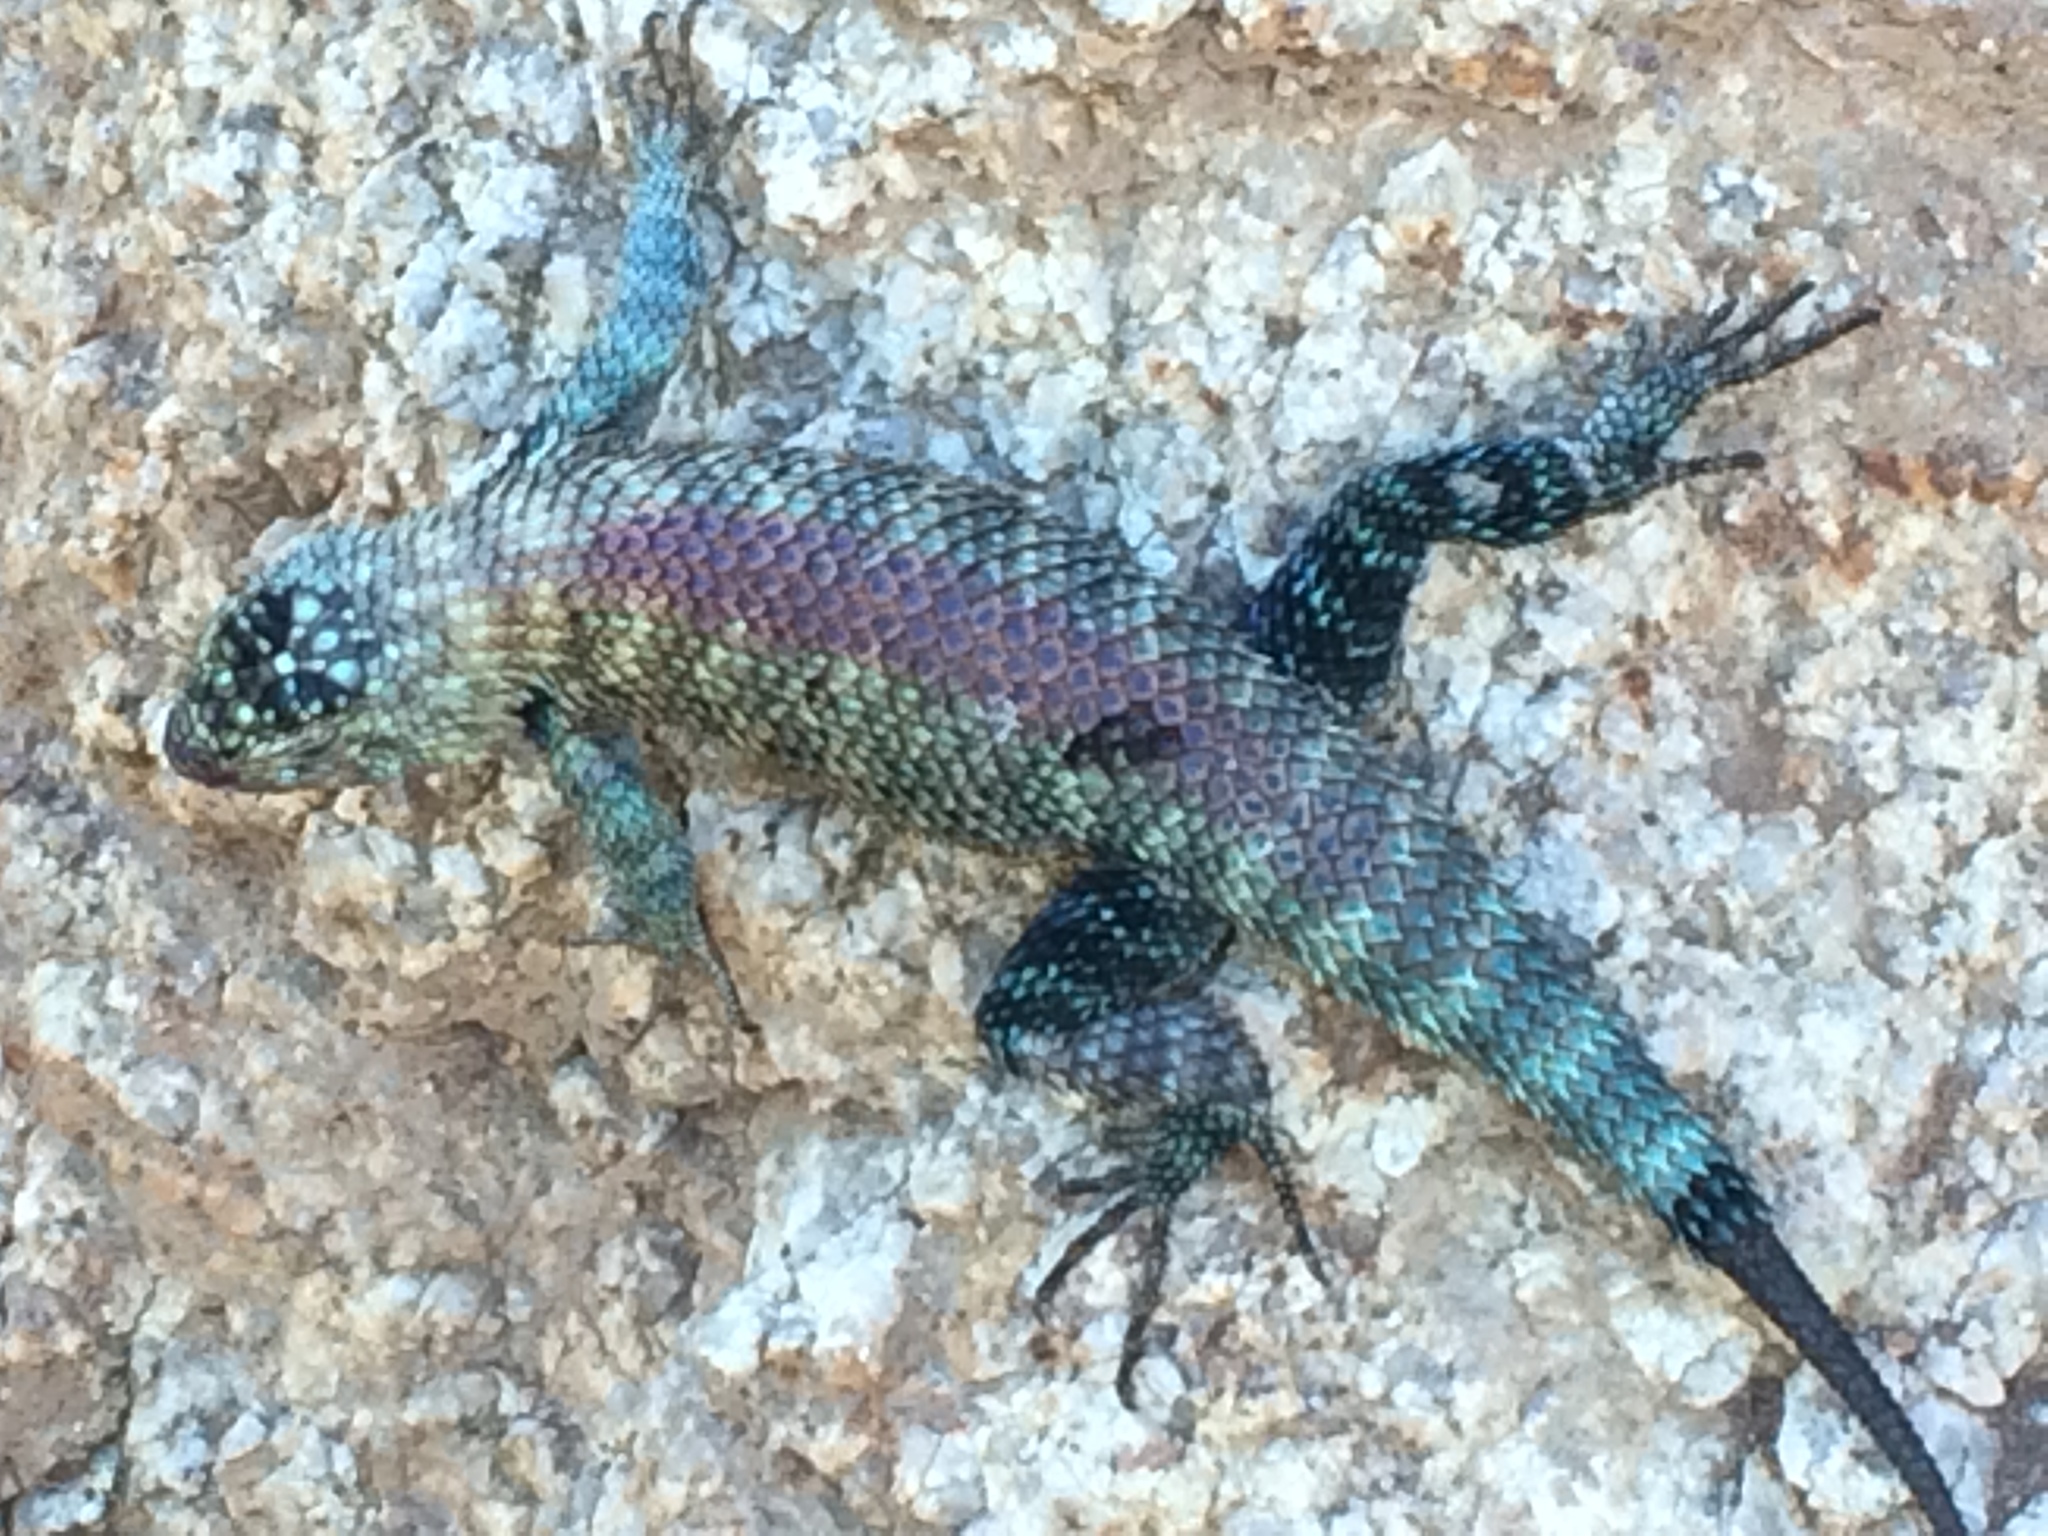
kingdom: Animalia
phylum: Chordata
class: Squamata
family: Phrynosomatidae
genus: Sceloporus
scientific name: Sceloporus orcutti
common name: Granite spiny lizard
